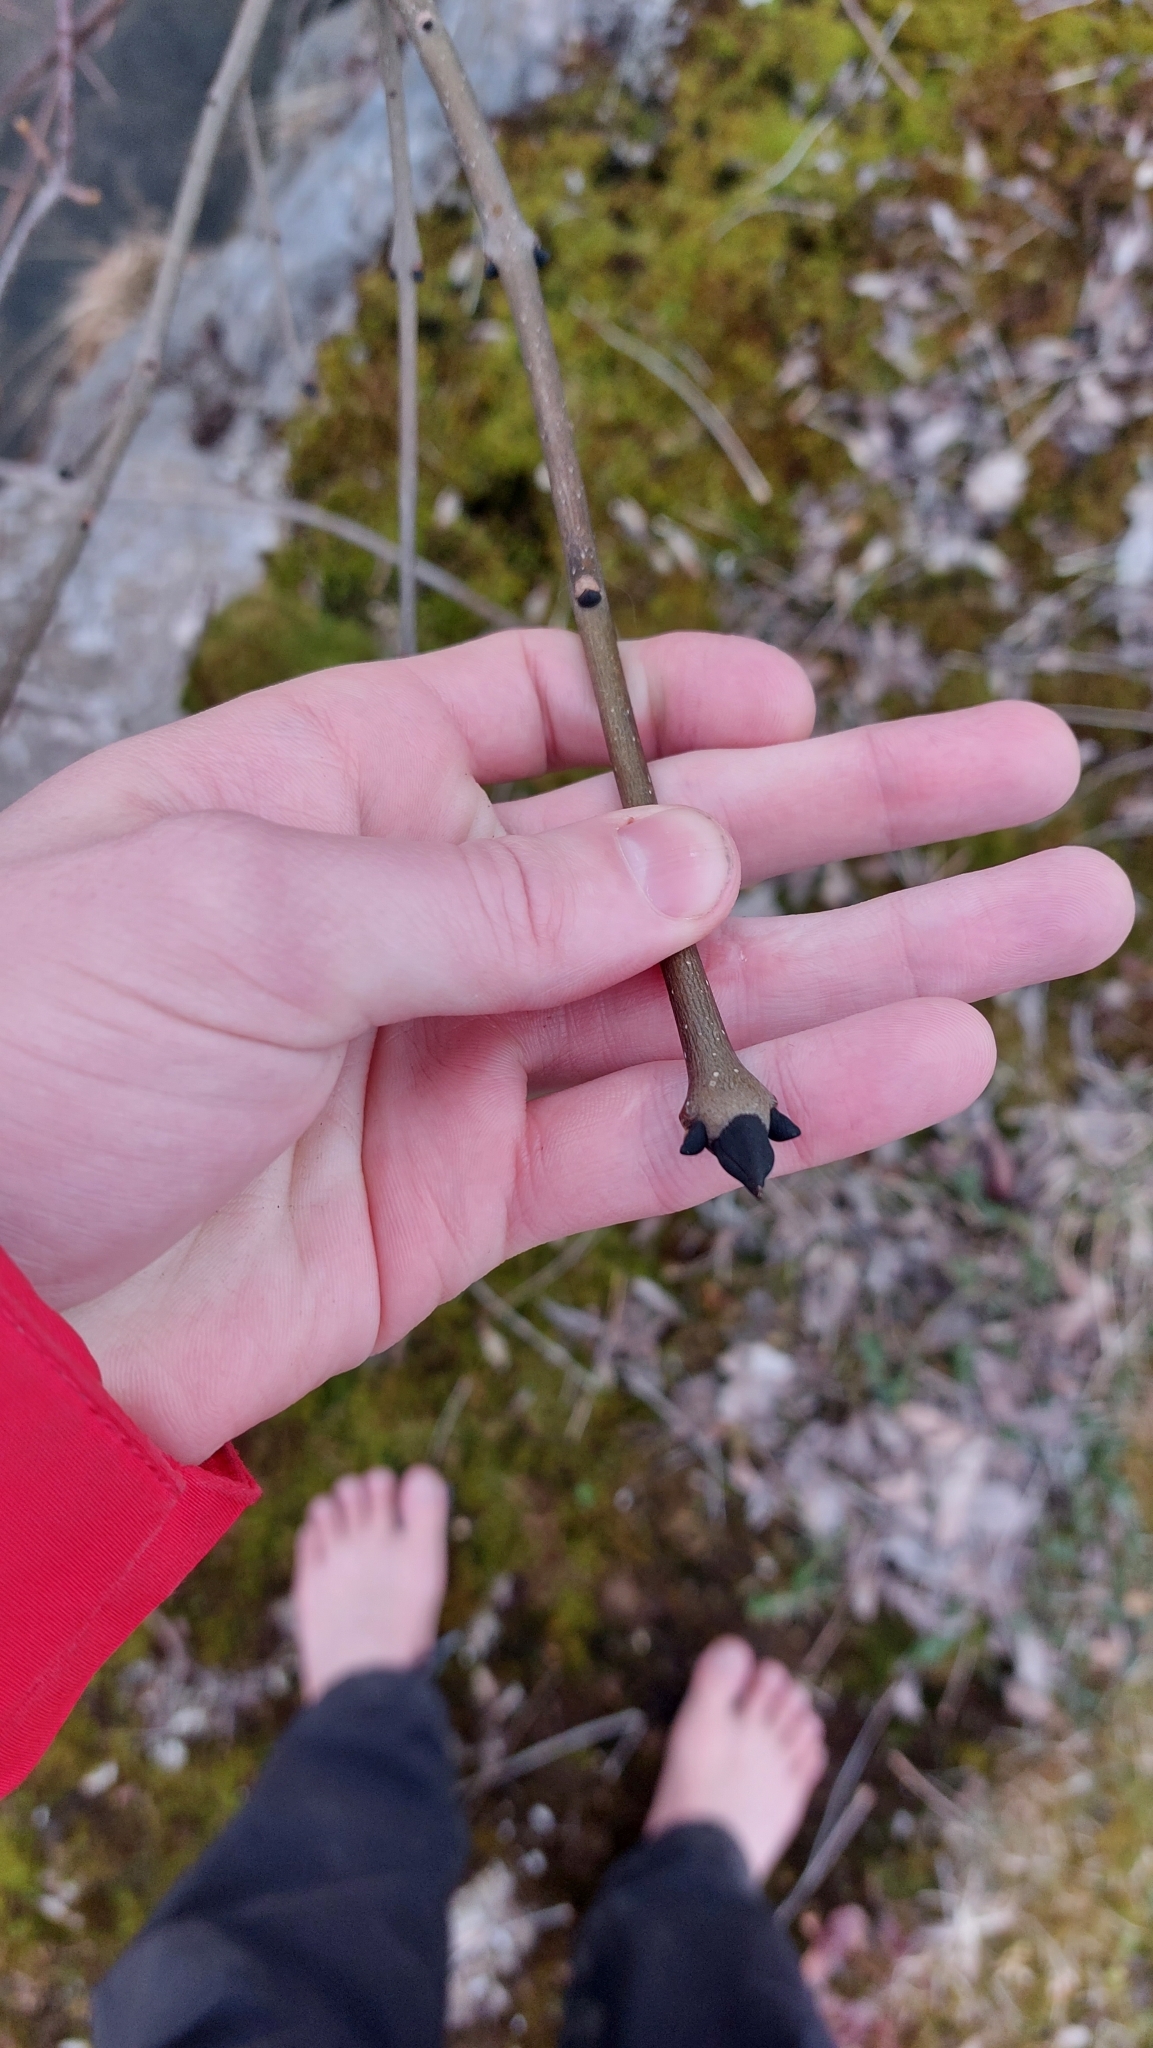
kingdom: Plantae
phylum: Tracheophyta
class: Magnoliopsida
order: Lamiales
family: Oleaceae
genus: Fraxinus
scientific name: Fraxinus excelsior
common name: European ash
